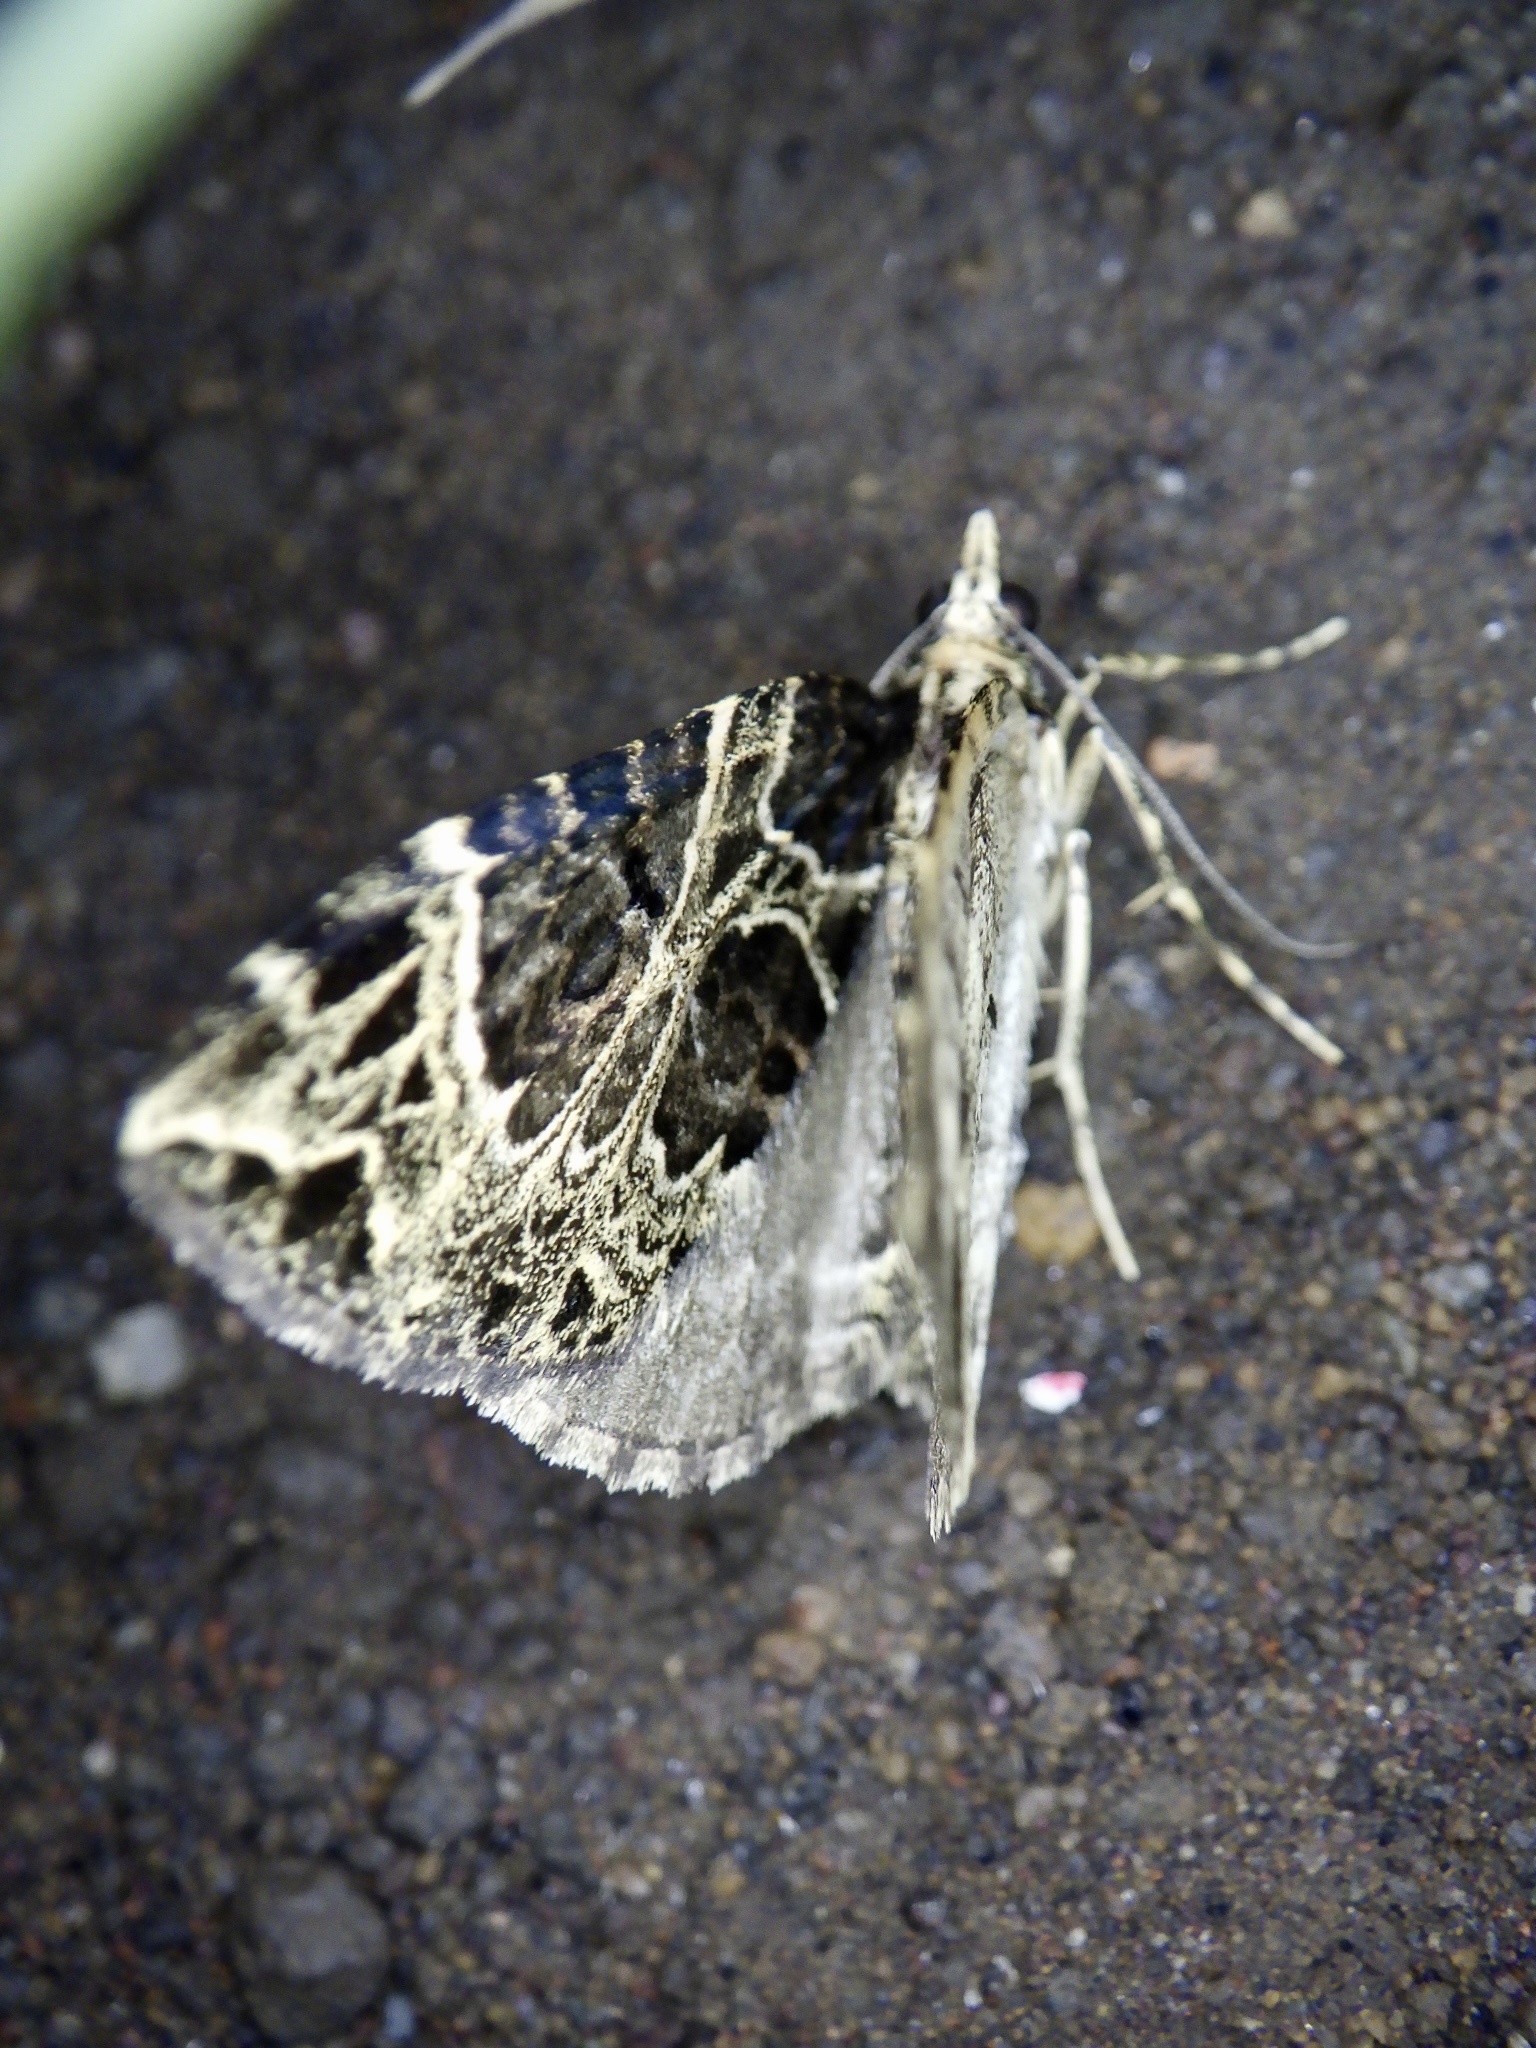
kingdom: Animalia
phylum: Arthropoda
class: Insecta
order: Lepidoptera
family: Geometridae
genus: Eustroma
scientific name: Eustroma melancholica
